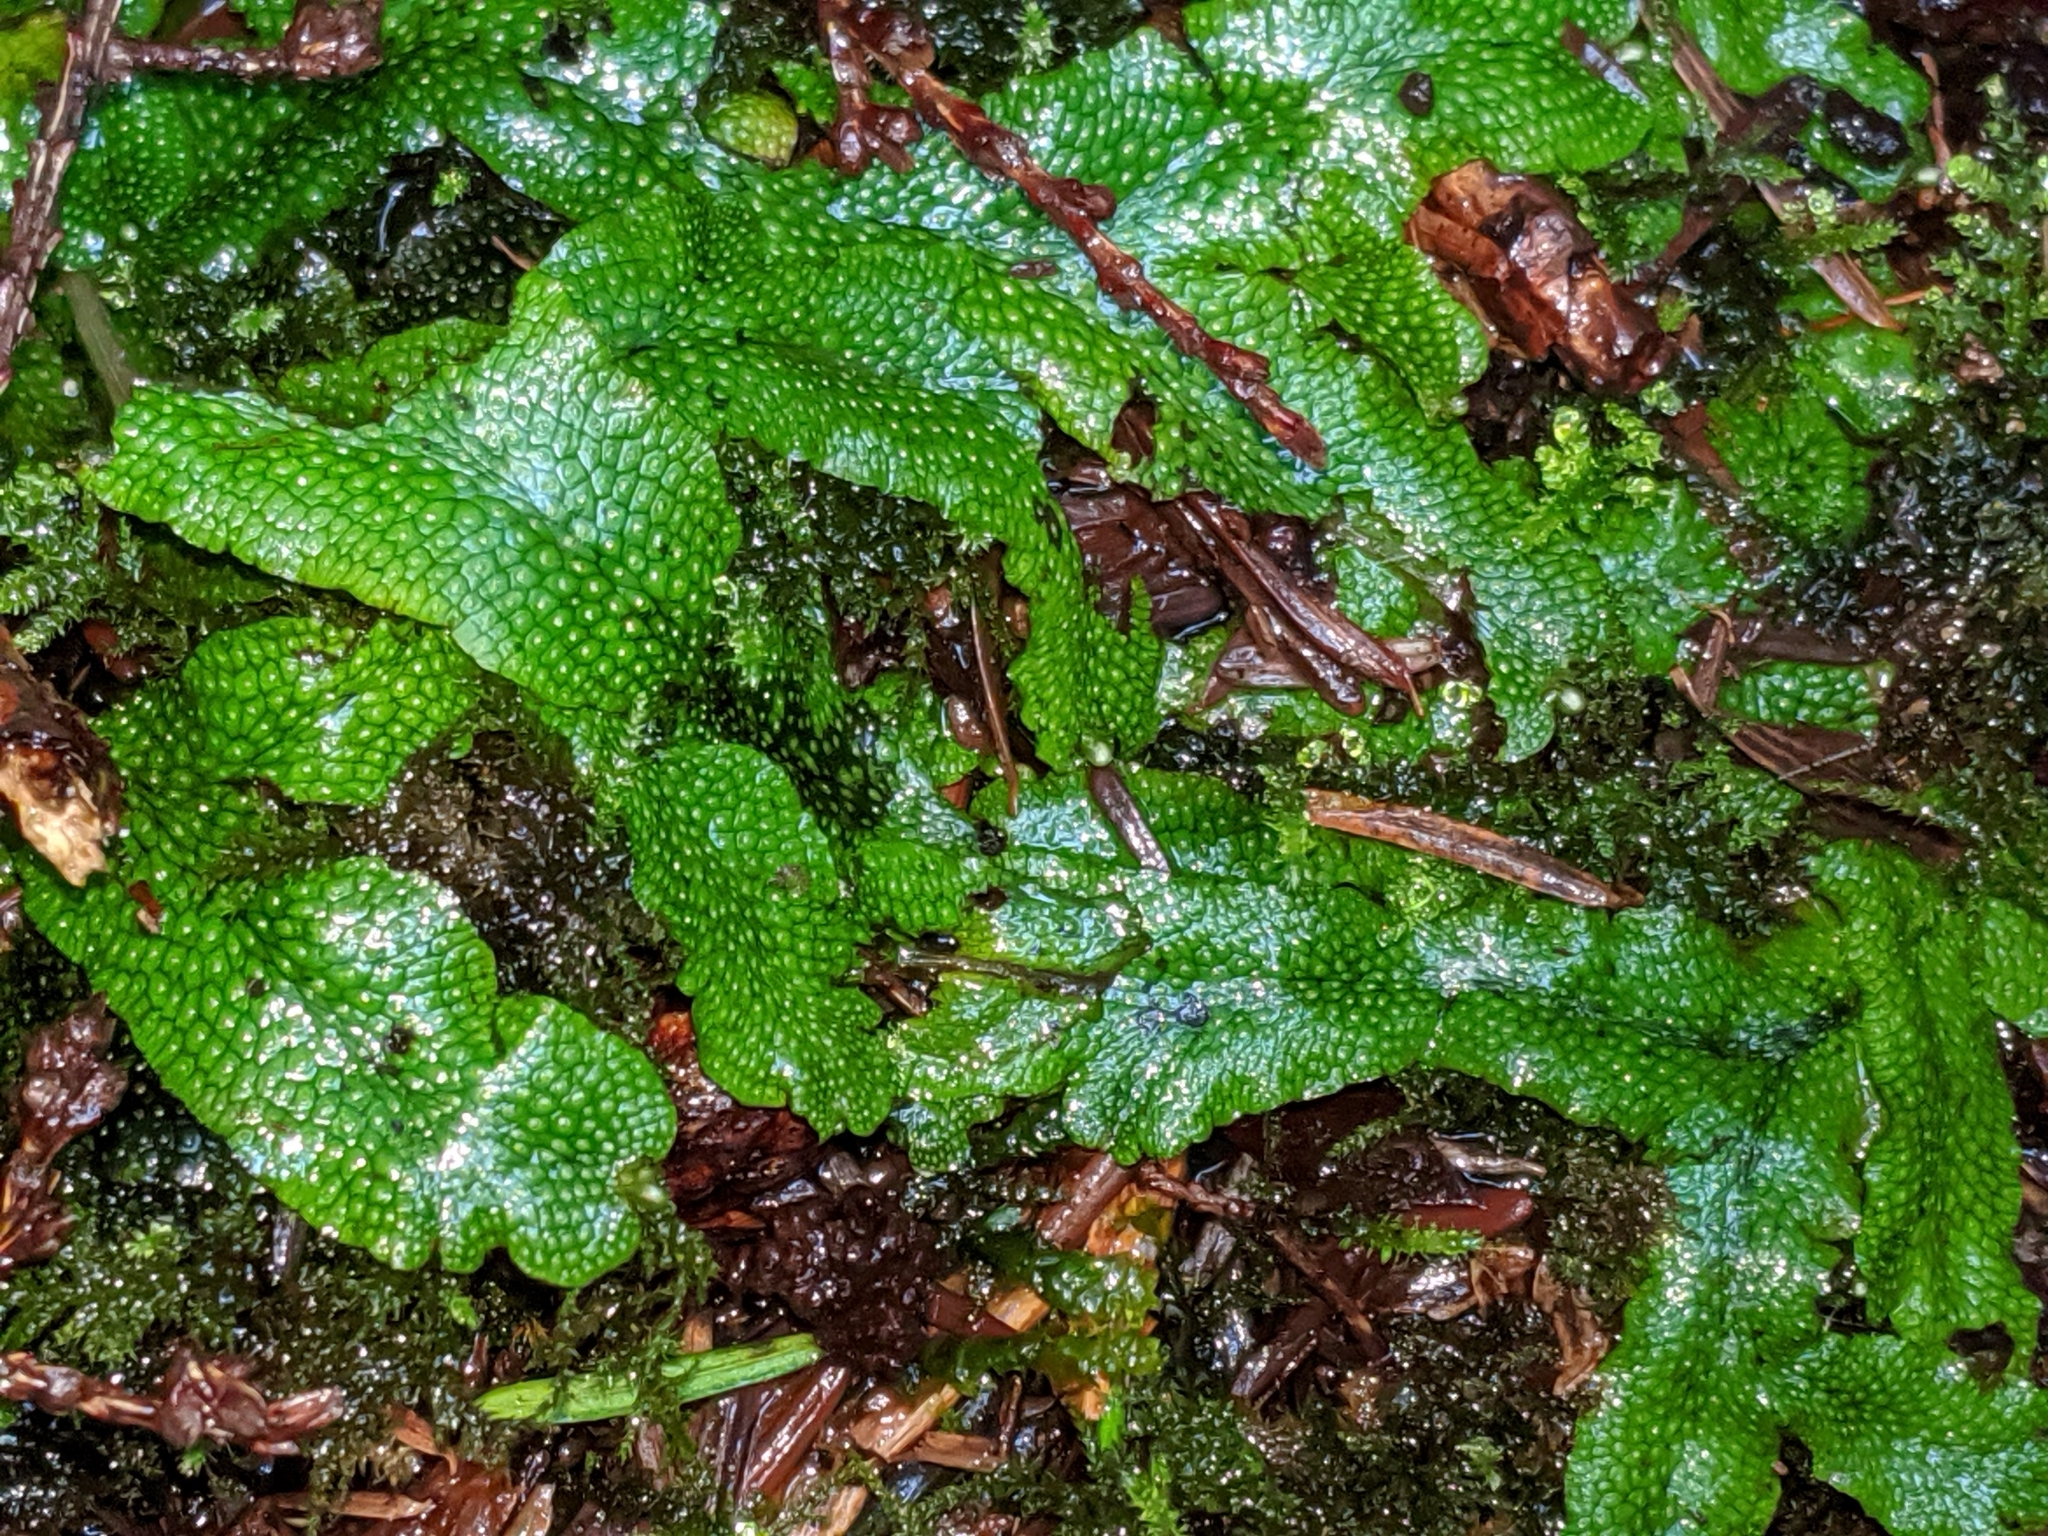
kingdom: Plantae
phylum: Marchantiophyta
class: Marchantiopsida
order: Marchantiales
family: Conocephalaceae
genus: Conocephalum
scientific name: Conocephalum salebrosum
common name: Cat-tongue liverwort
